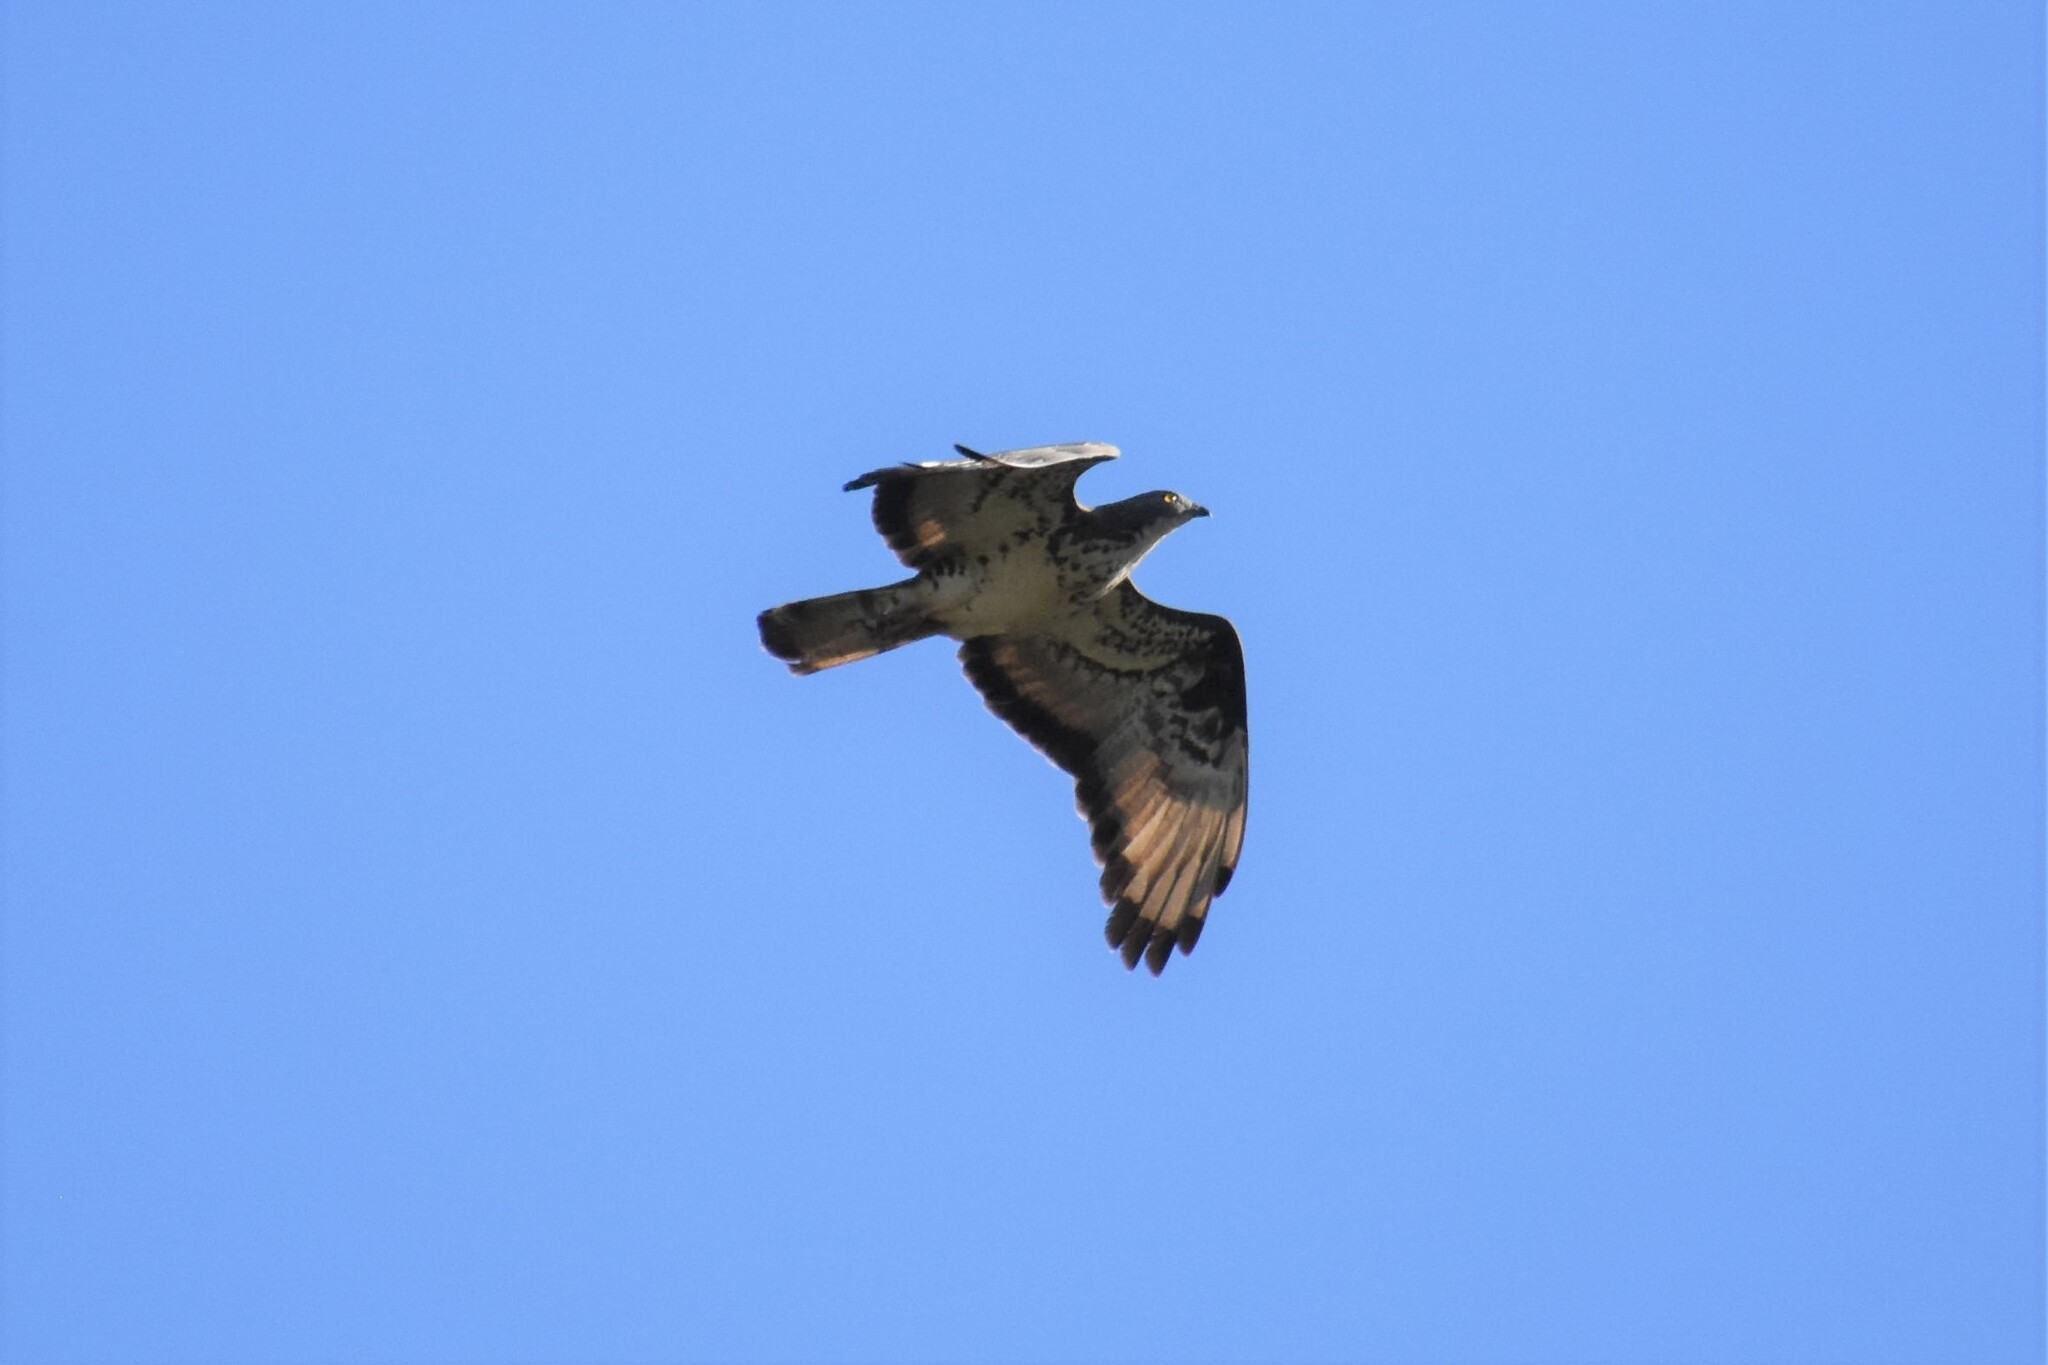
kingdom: Animalia
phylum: Chordata
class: Aves
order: Accipitriformes
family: Accipitridae
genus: Pernis
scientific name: Pernis apivorus
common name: European honey buzzard
